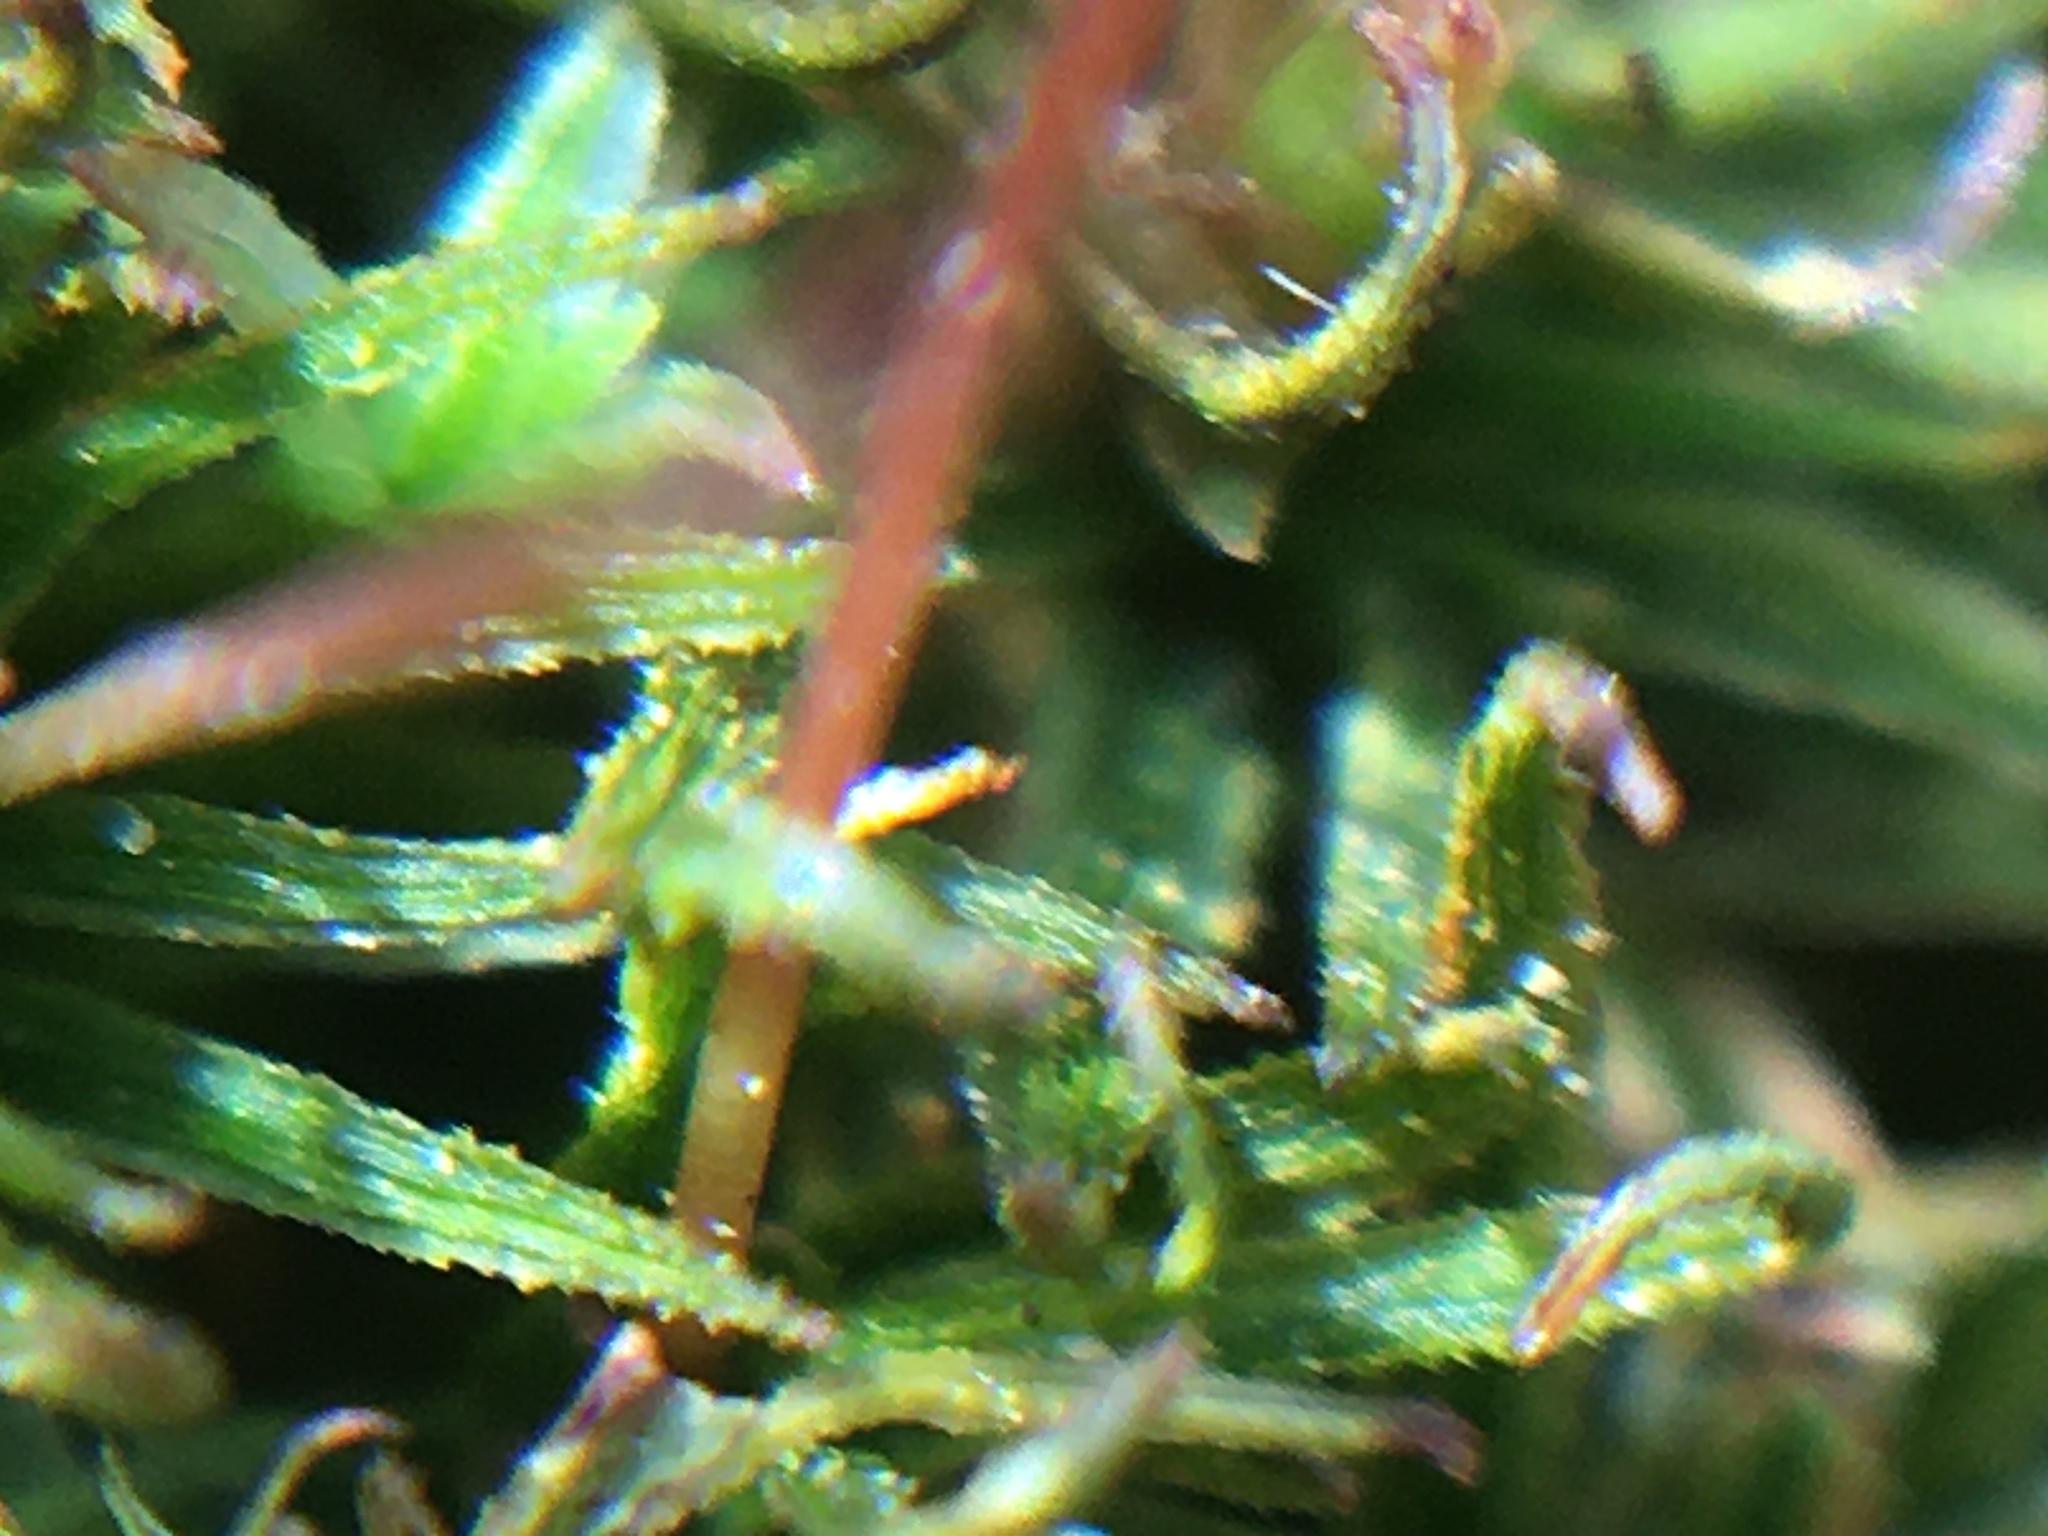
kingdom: Plantae
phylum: Bryophyta
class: Polytrichopsida
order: Polytrichales
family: Polytrichaceae
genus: Atrichum
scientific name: Atrichum angustatum
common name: Lesser smoothcap
